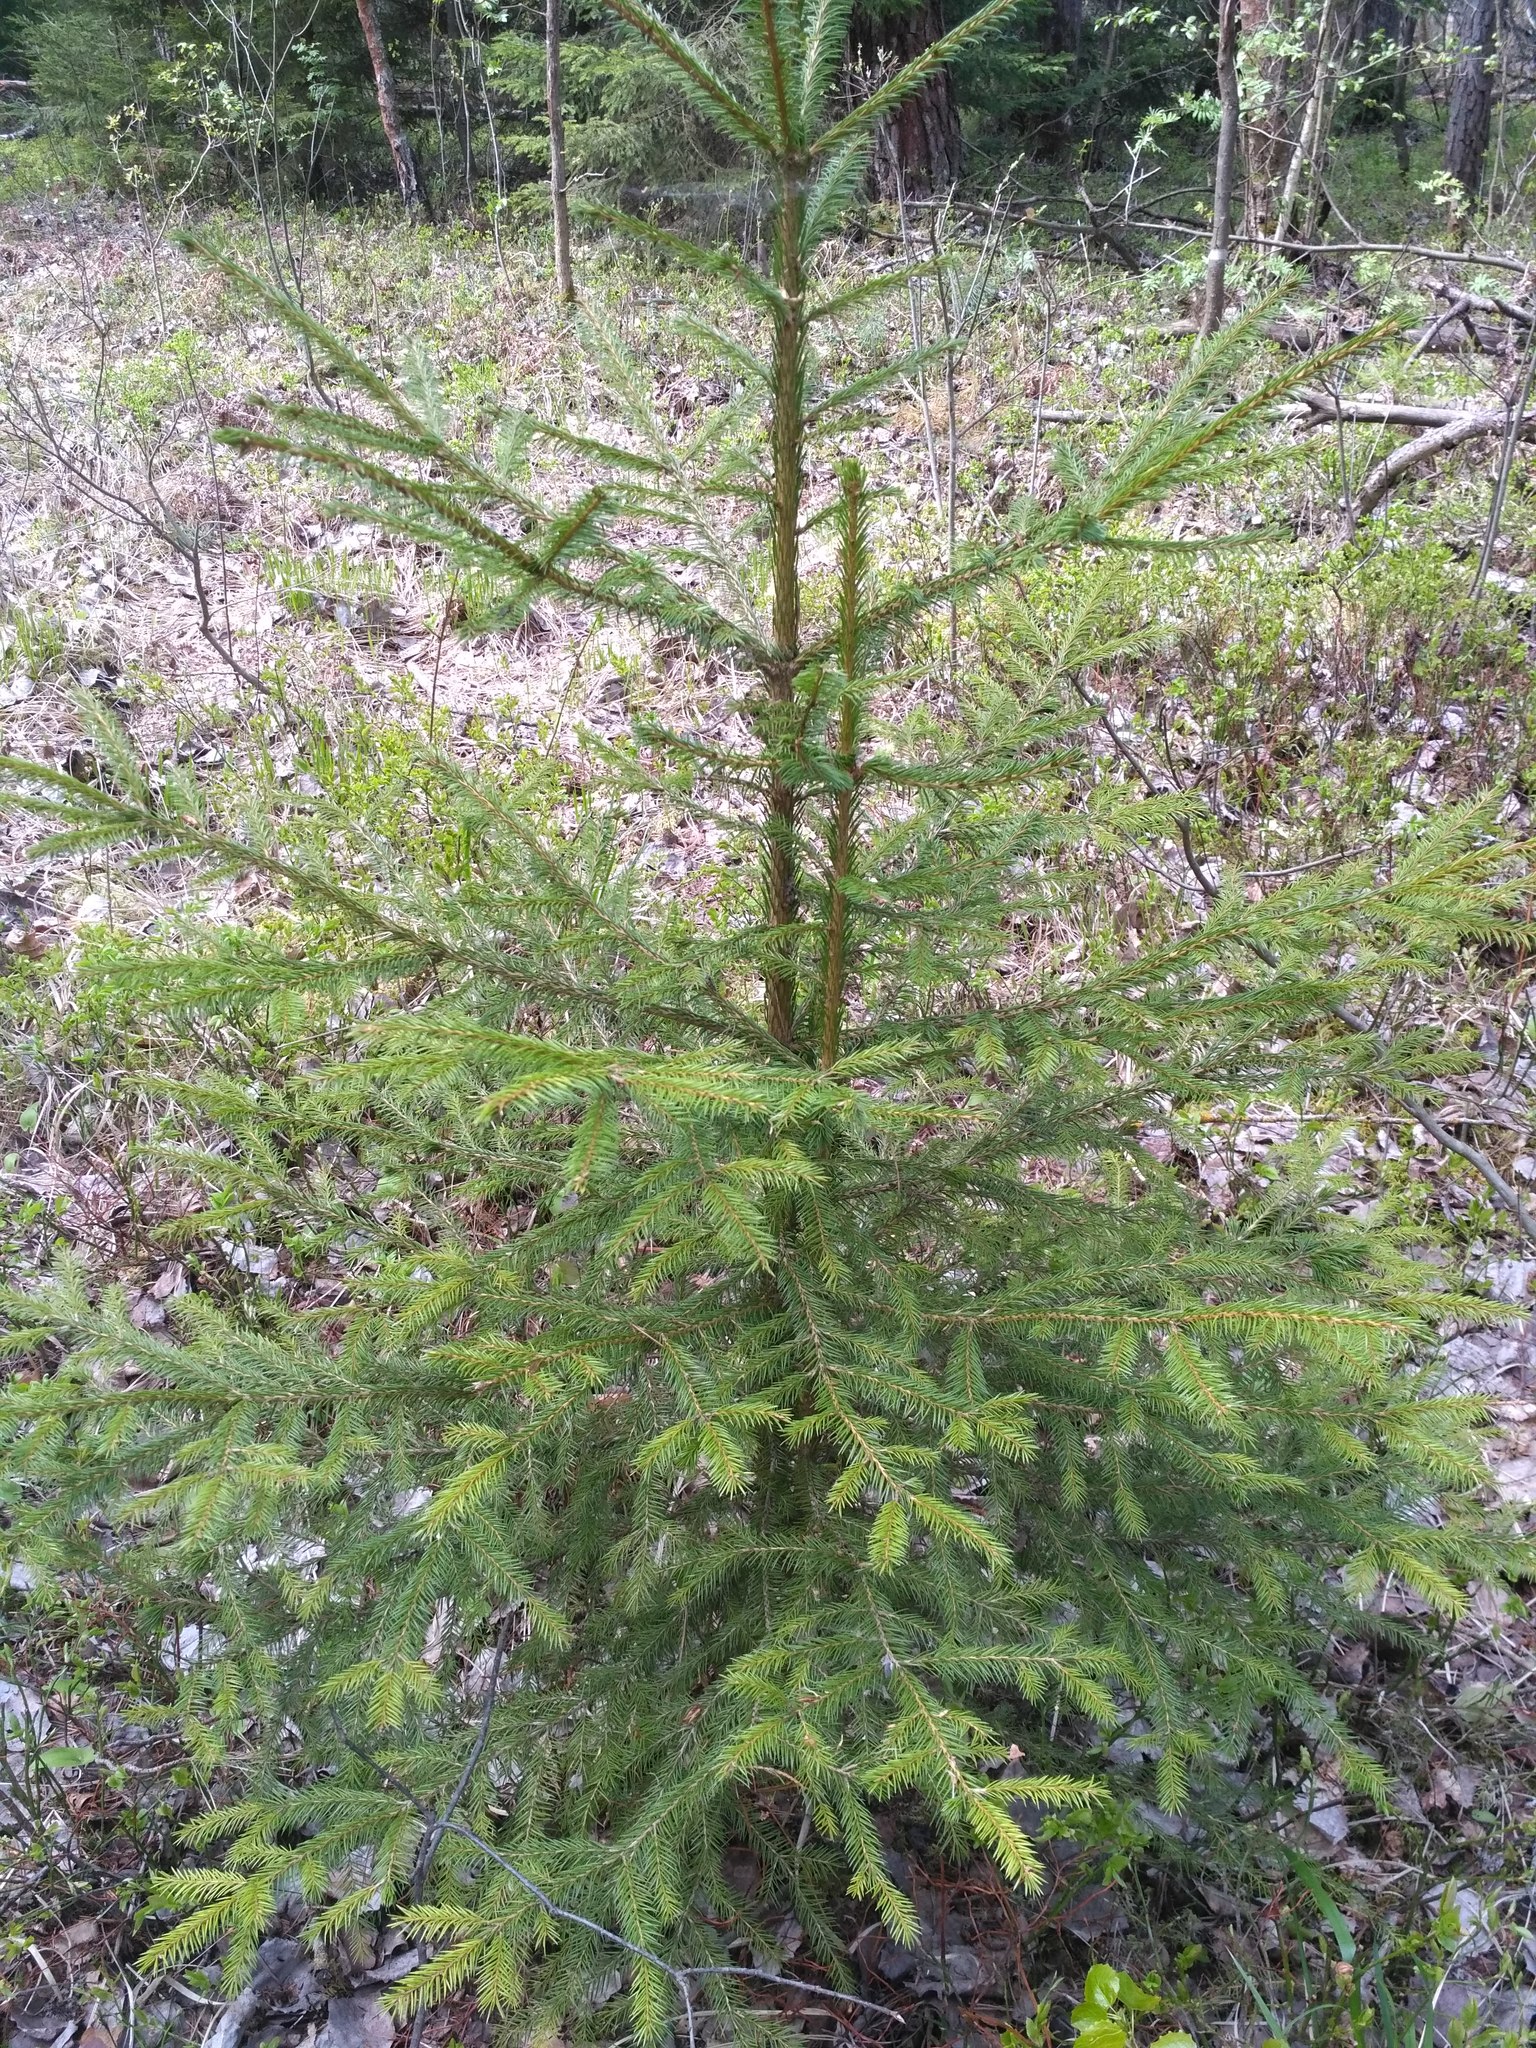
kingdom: Plantae
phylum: Tracheophyta
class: Pinopsida
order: Pinales
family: Pinaceae
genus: Picea
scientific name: Picea abies
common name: Norway spruce
